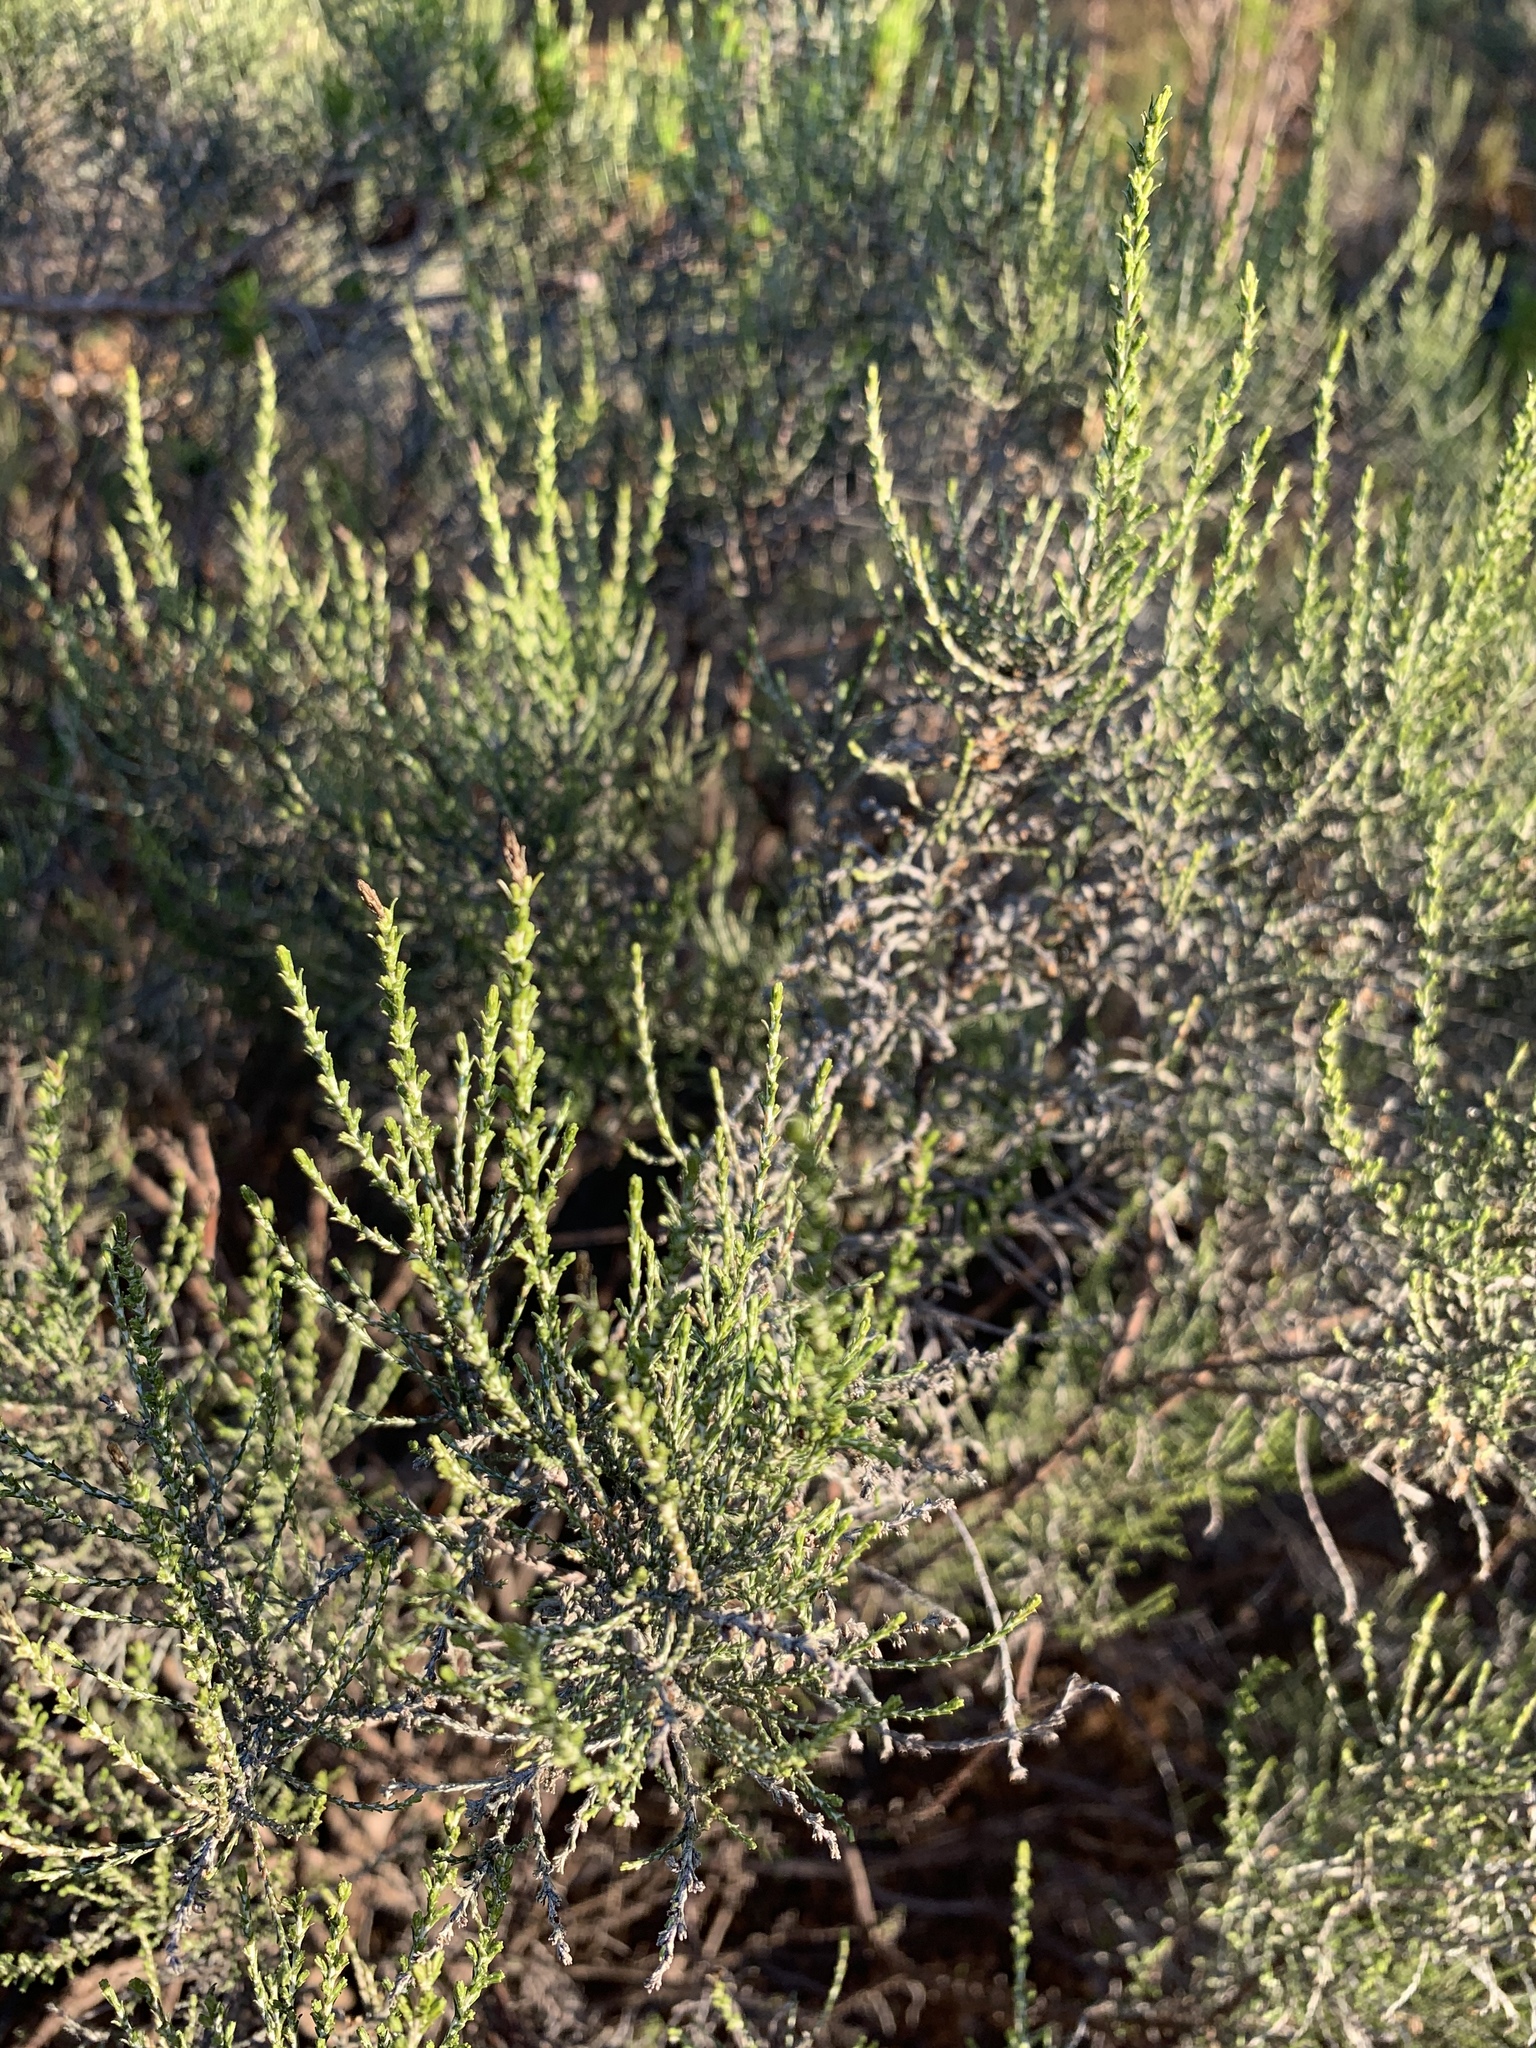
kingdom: Plantae
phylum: Tracheophyta
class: Magnoliopsida
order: Asterales
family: Asteraceae
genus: Dicerothamnus
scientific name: Dicerothamnus rhinocerotis
